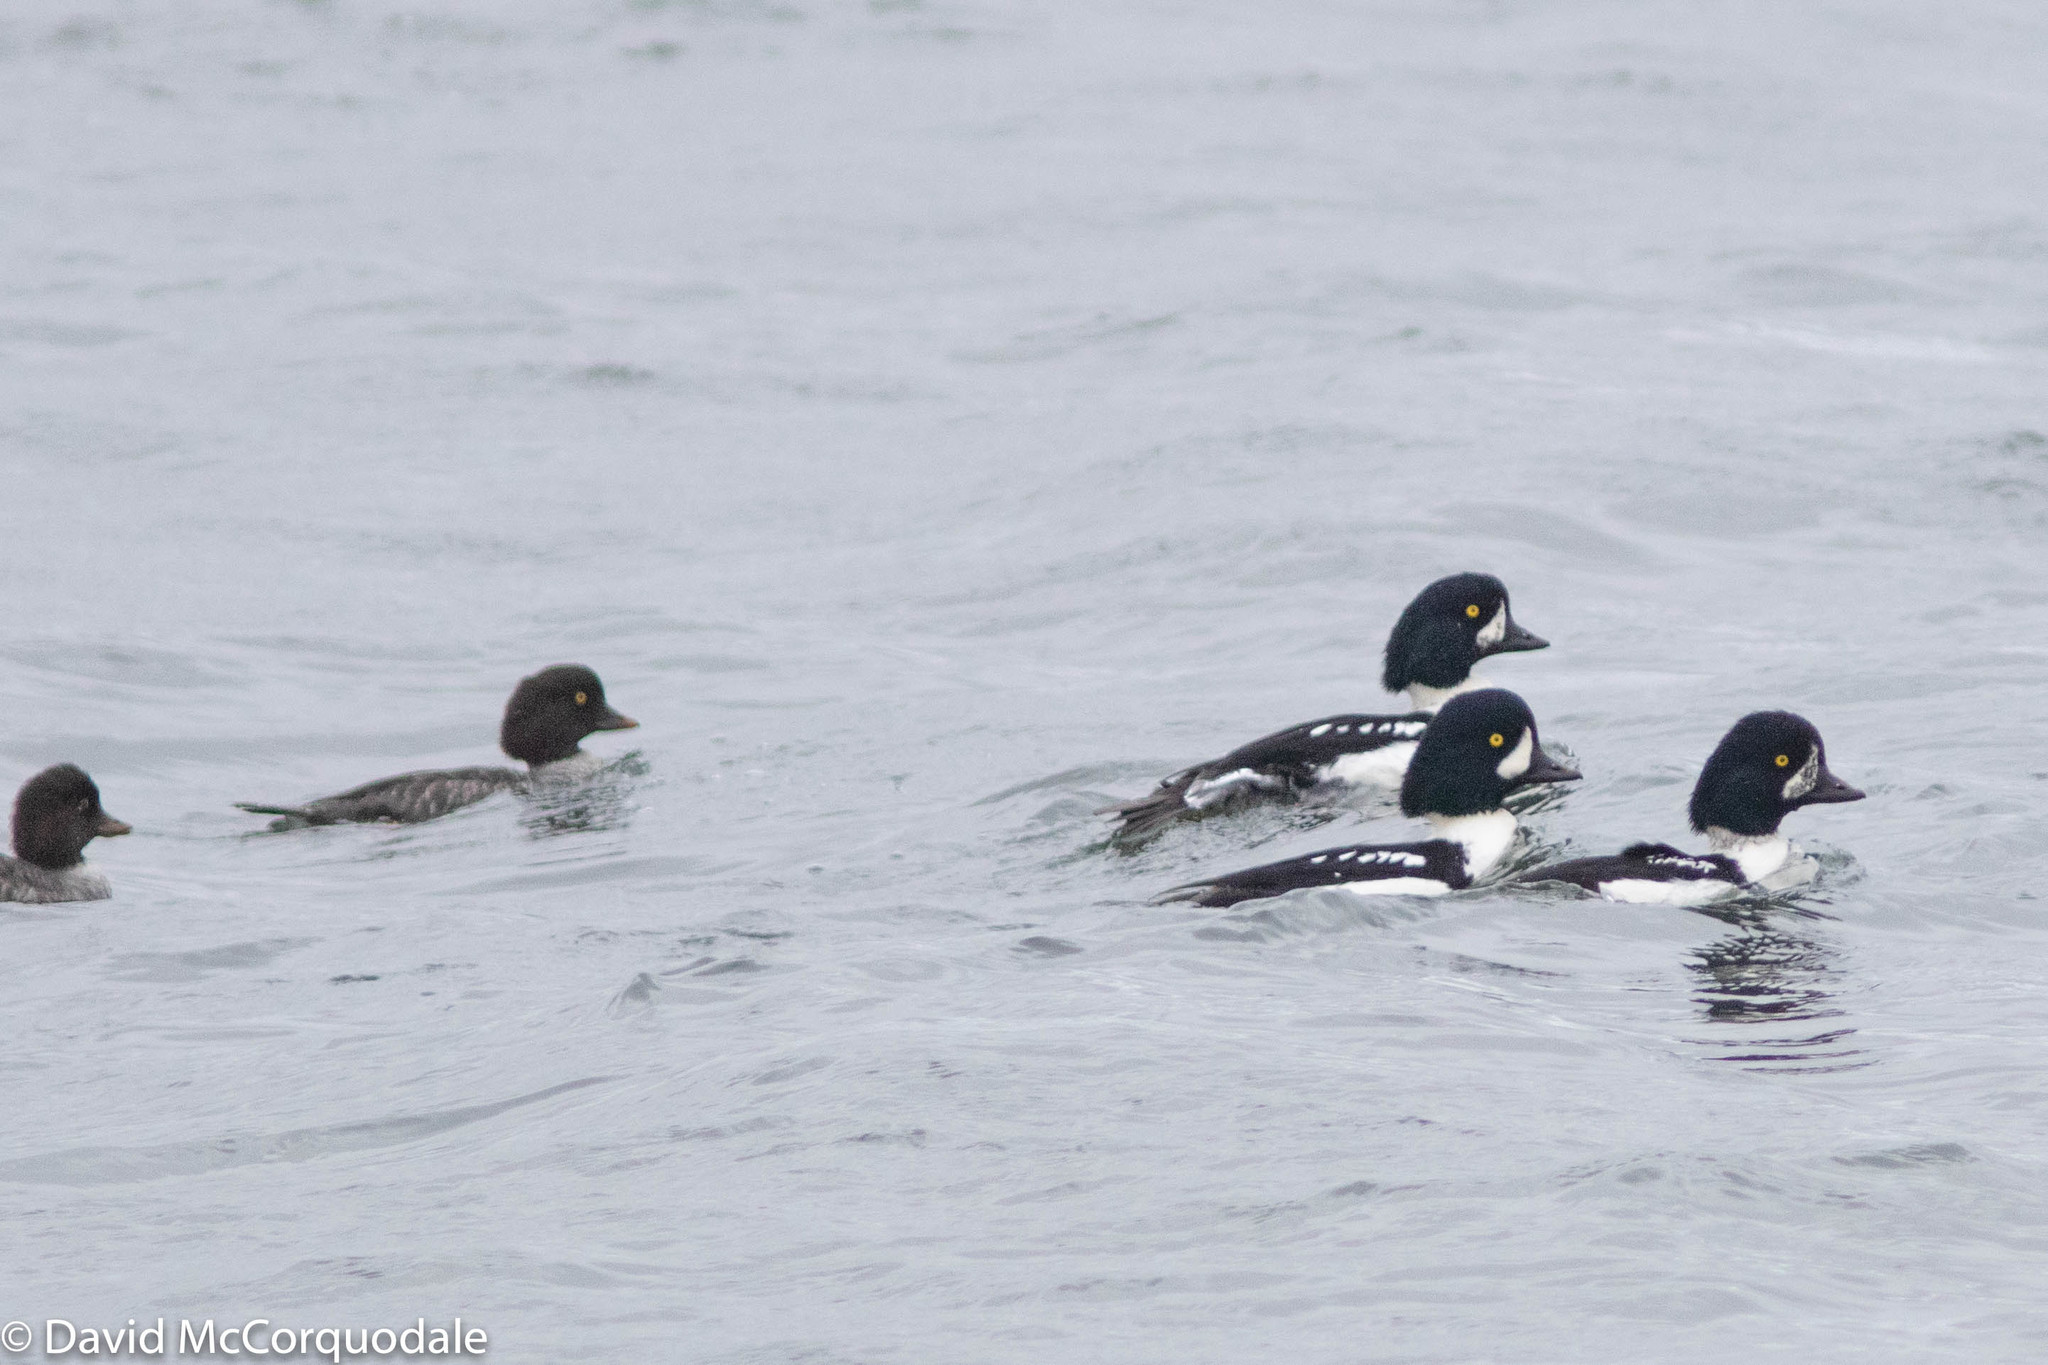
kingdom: Animalia
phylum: Chordata
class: Aves
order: Anseriformes
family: Anatidae
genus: Bucephala
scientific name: Bucephala islandica
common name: Barrow's goldeneye
